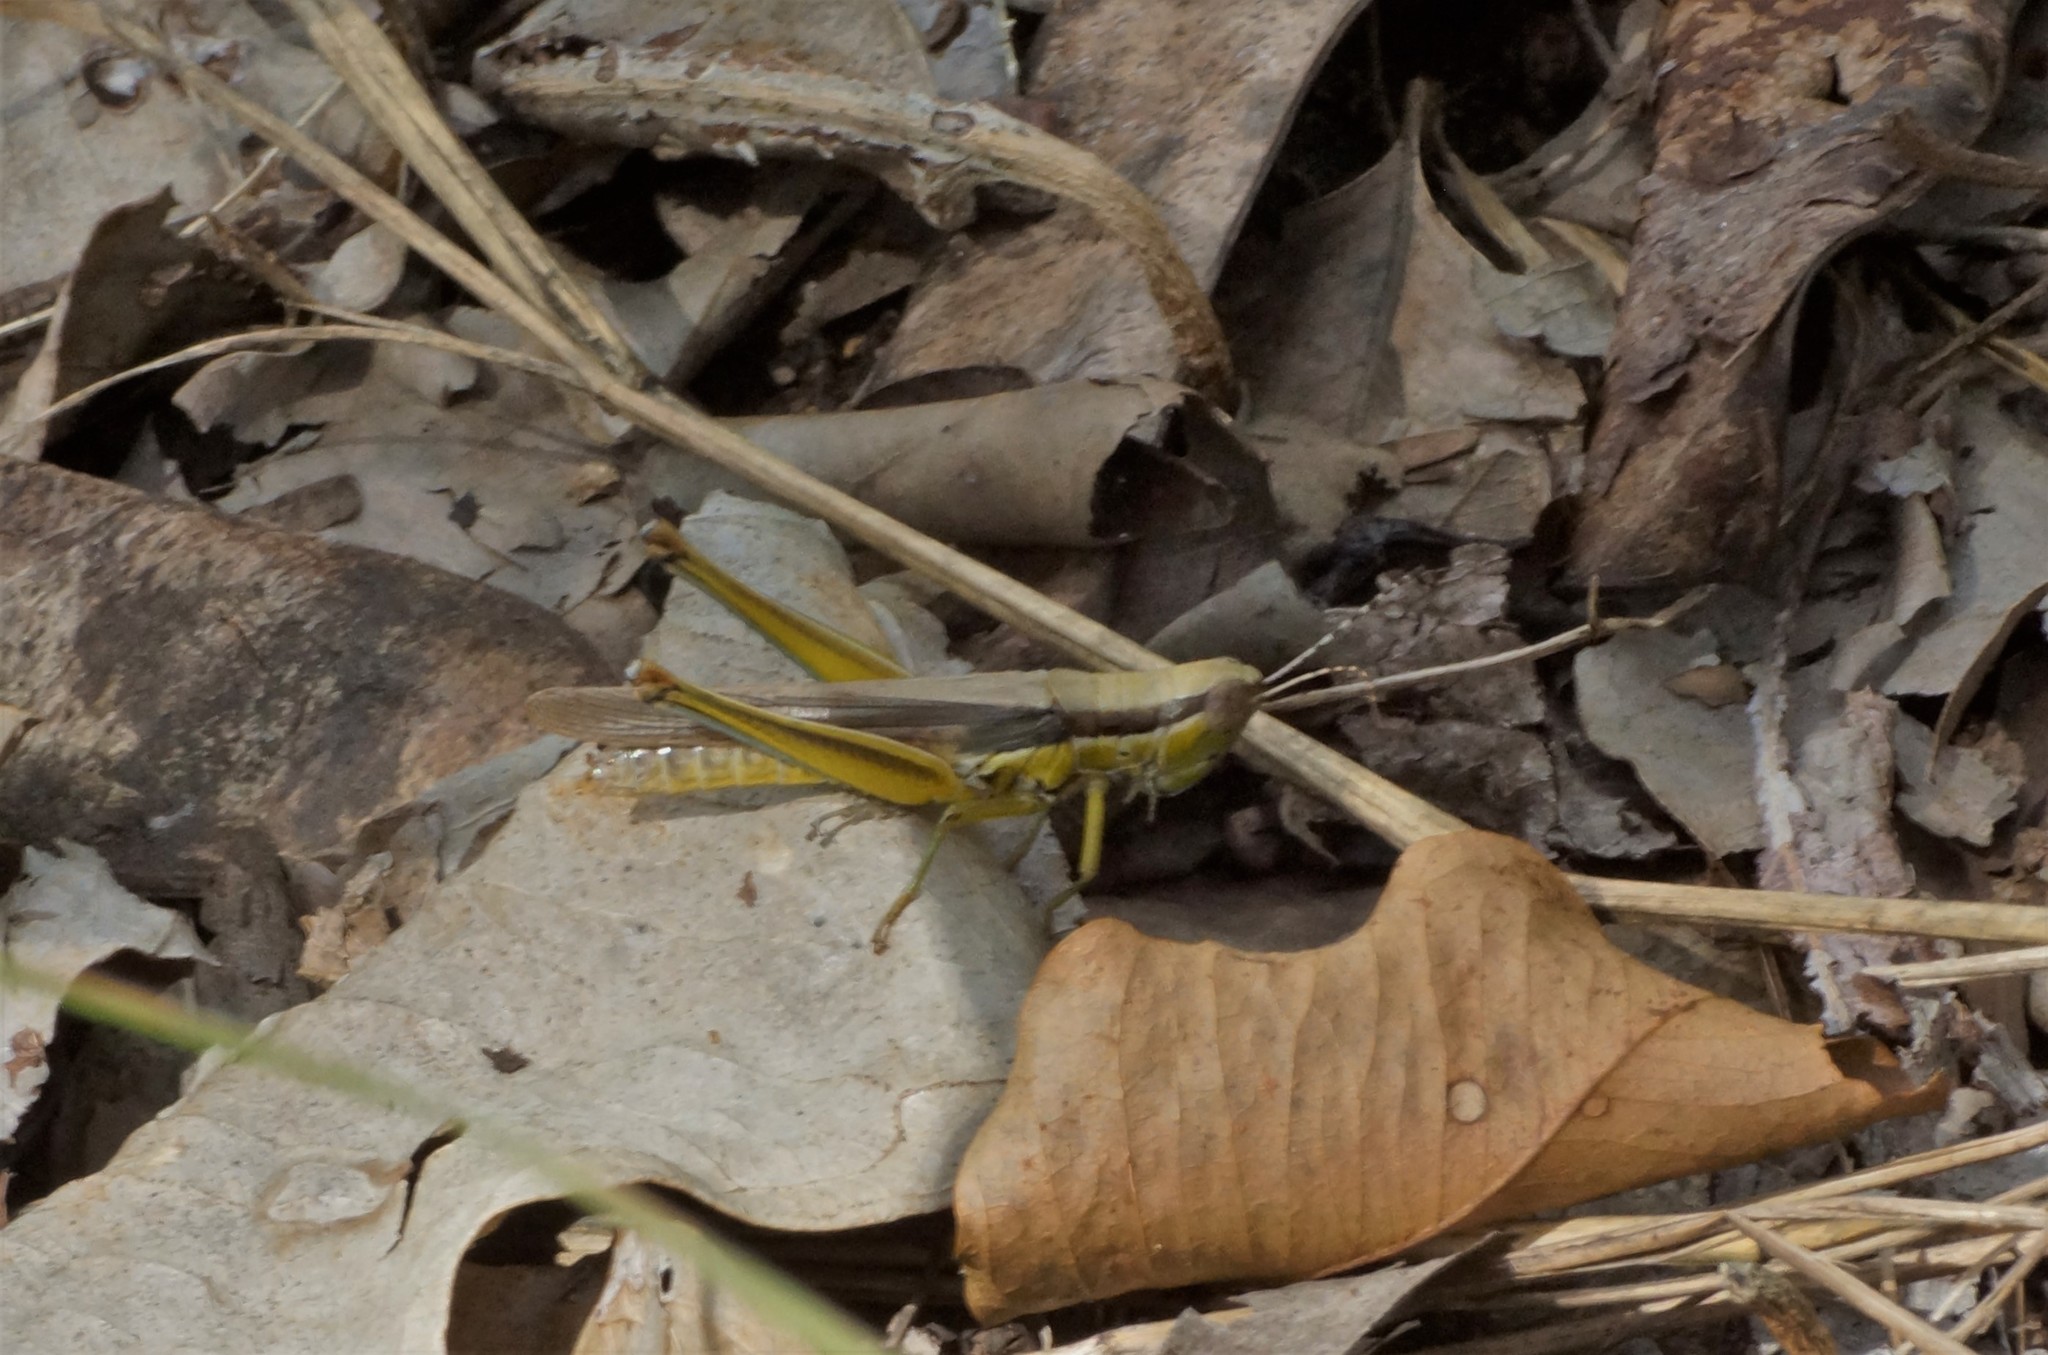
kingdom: Animalia
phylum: Arthropoda
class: Insecta
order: Orthoptera
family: Acrididae
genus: Bermius
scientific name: Bermius brachycerus
